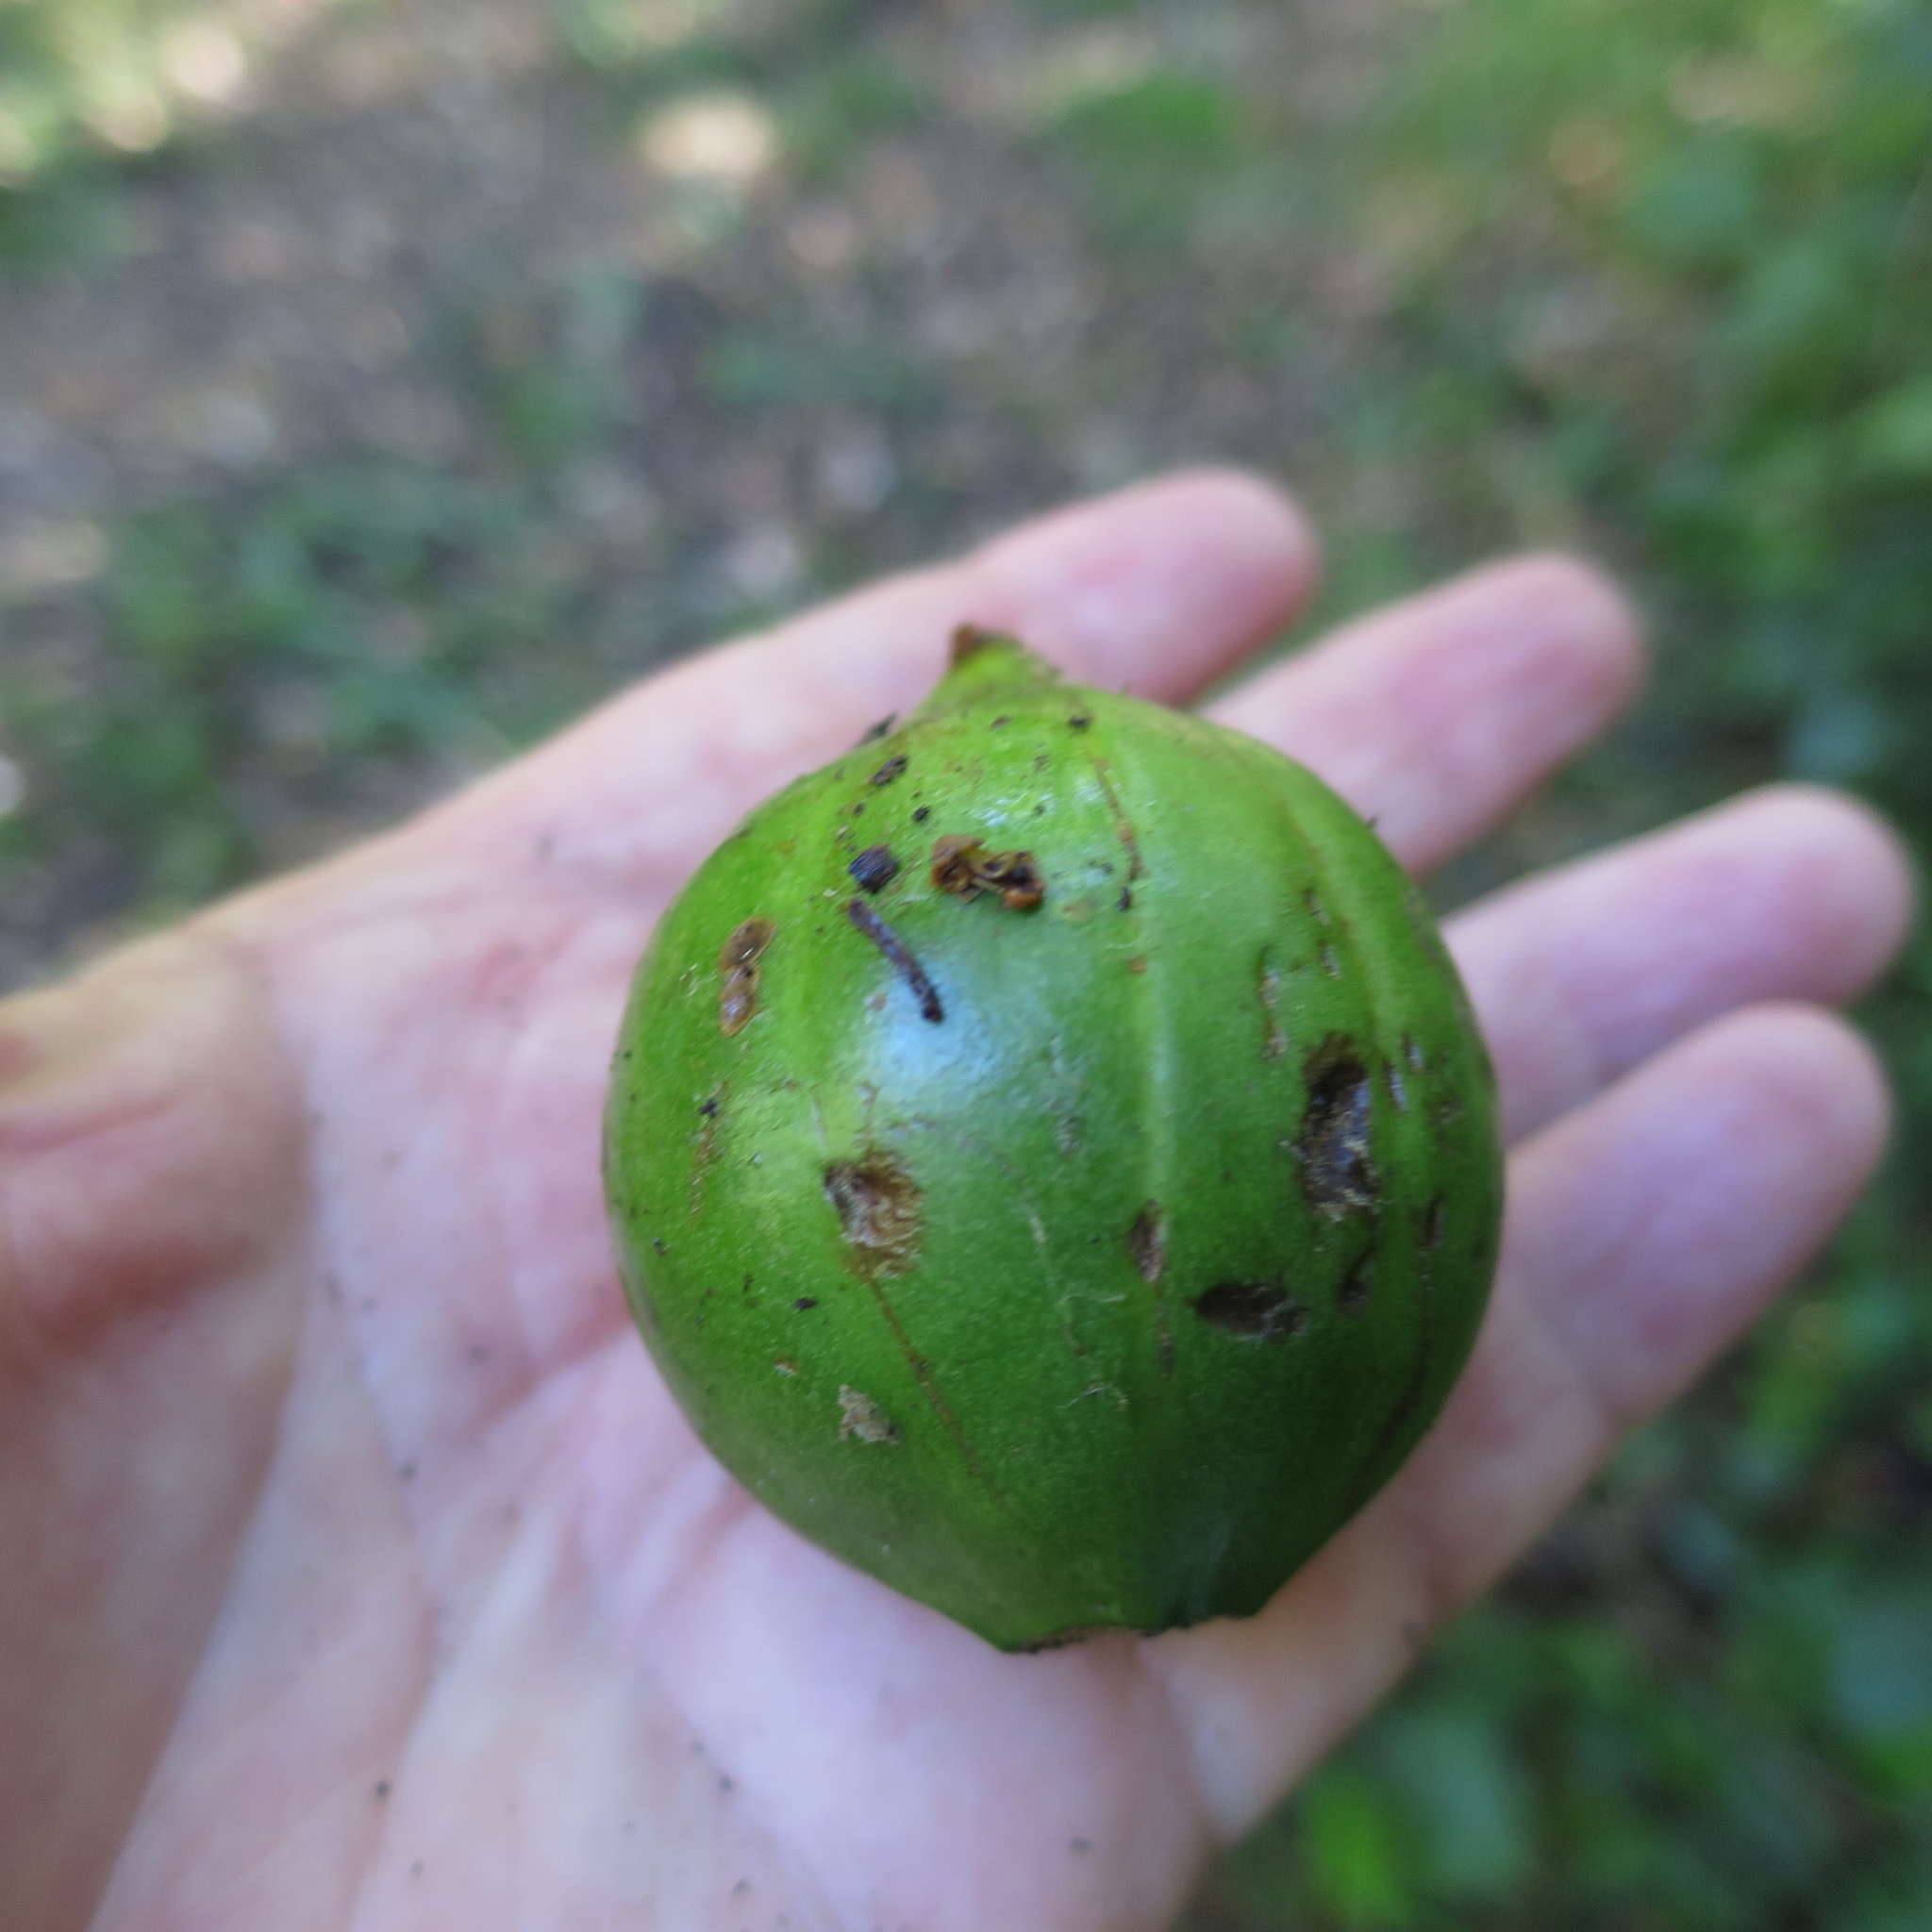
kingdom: Plantae
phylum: Tracheophyta
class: Magnoliopsida
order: Gentianales
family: Rubiaceae
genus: Rothmannia
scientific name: Rothmannia capensis
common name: Cape gardenia
